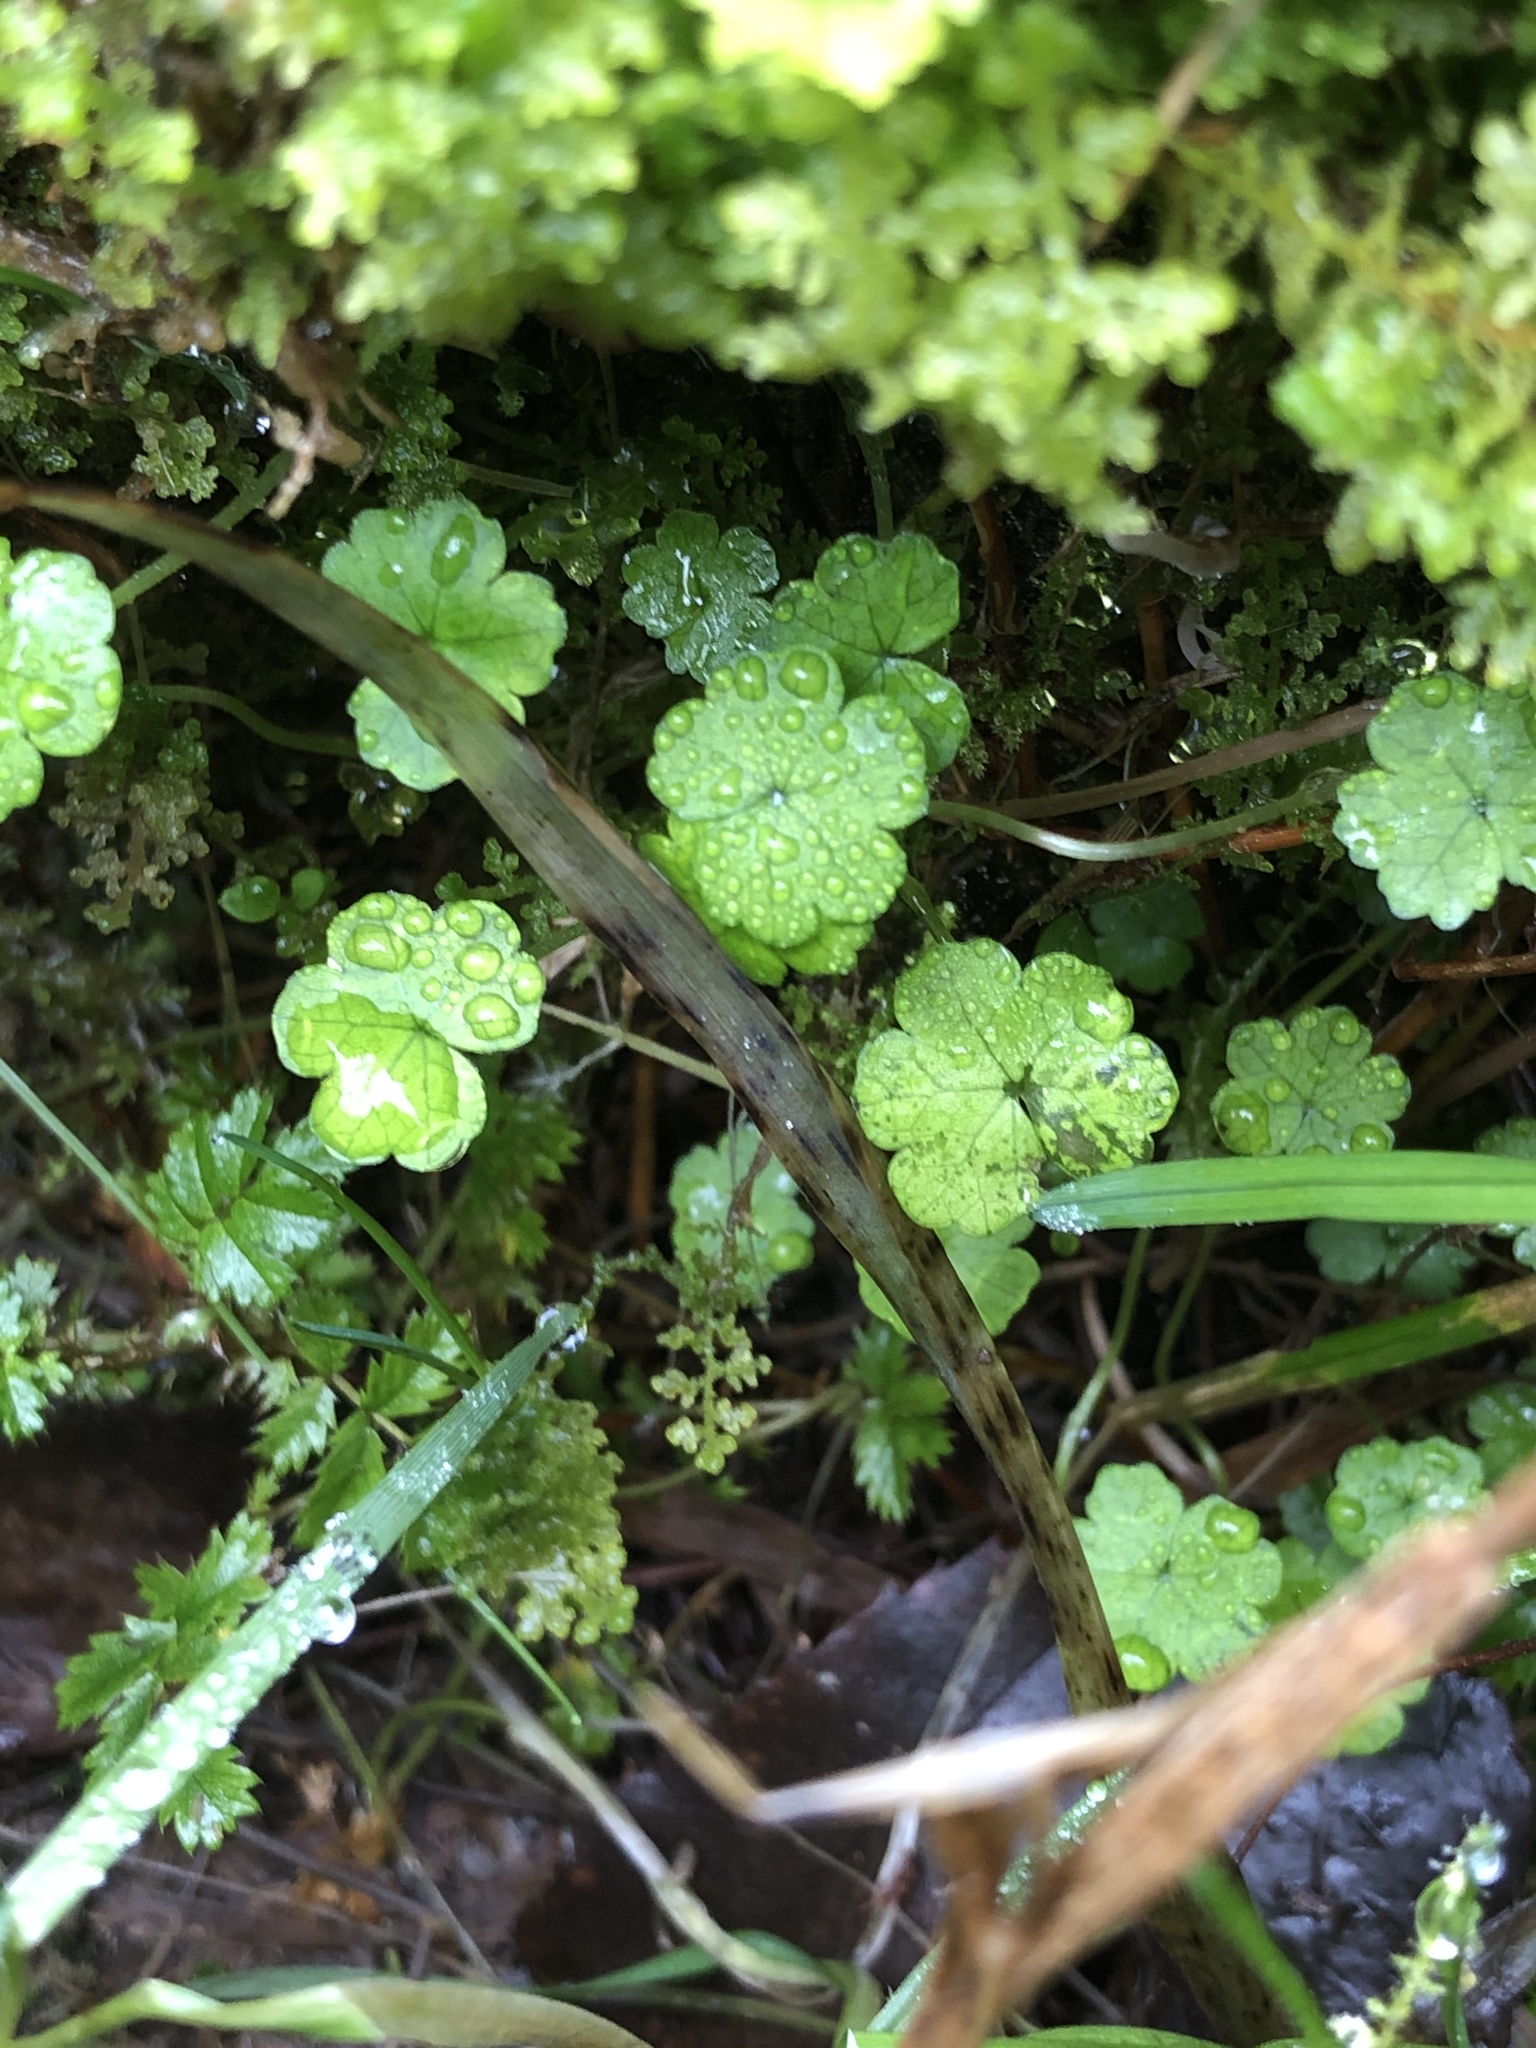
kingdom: Plantae
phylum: Tracheophyta
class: Magnoliopsida
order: Apiales
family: Araliaceae
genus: Hydrocotyle
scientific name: Hydrocotyle heteromeria
